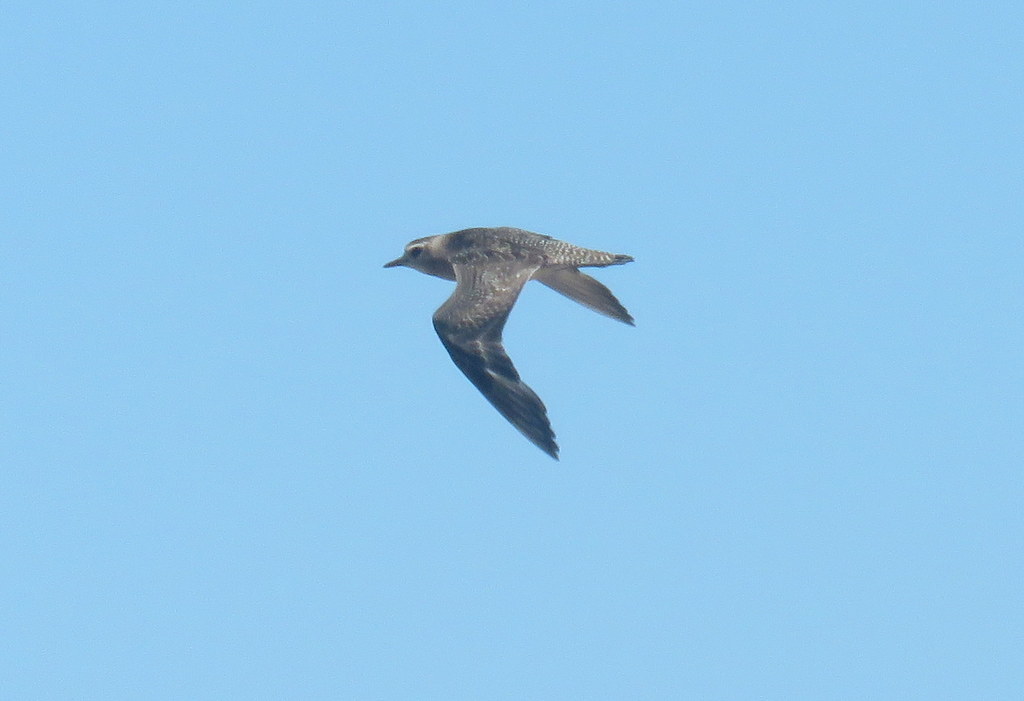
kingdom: Animalia
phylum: Chordata
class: Aves
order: Charadriiformes
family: Charadriidae
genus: Pluvialis
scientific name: Pluvialis dominica
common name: American golden plover
